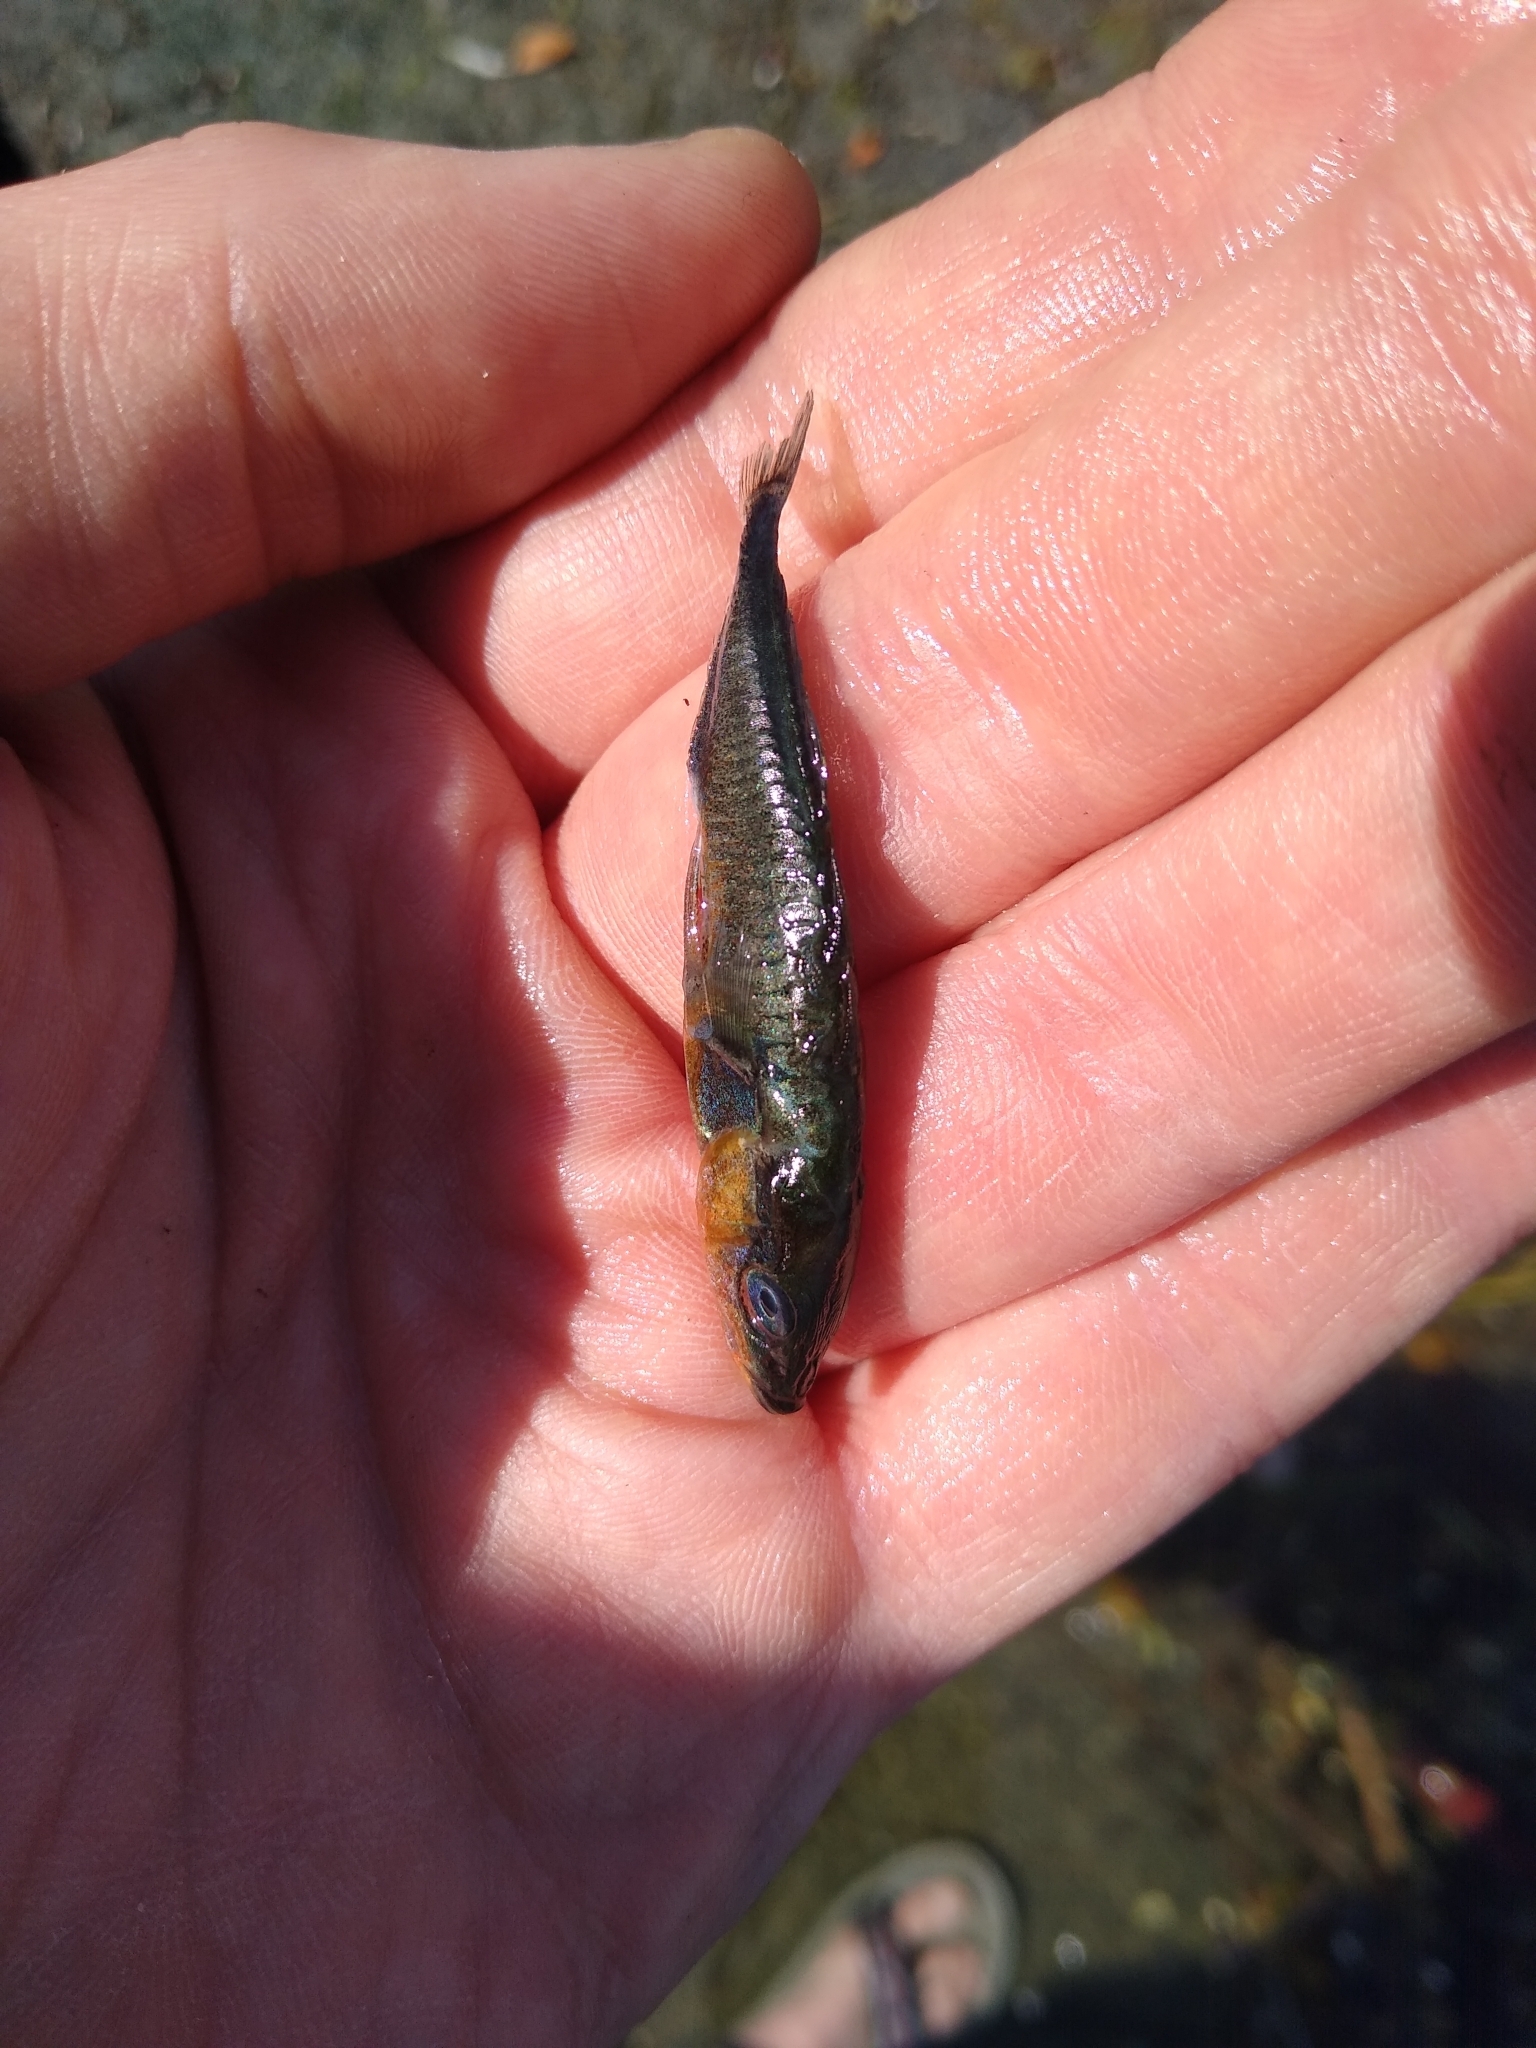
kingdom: Animalia
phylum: Chordata
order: Gasterosteiformes
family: Gasterosteidae
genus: Gasterosteus
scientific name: Gasterosteus aculeatus
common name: Three-spined stickleback
